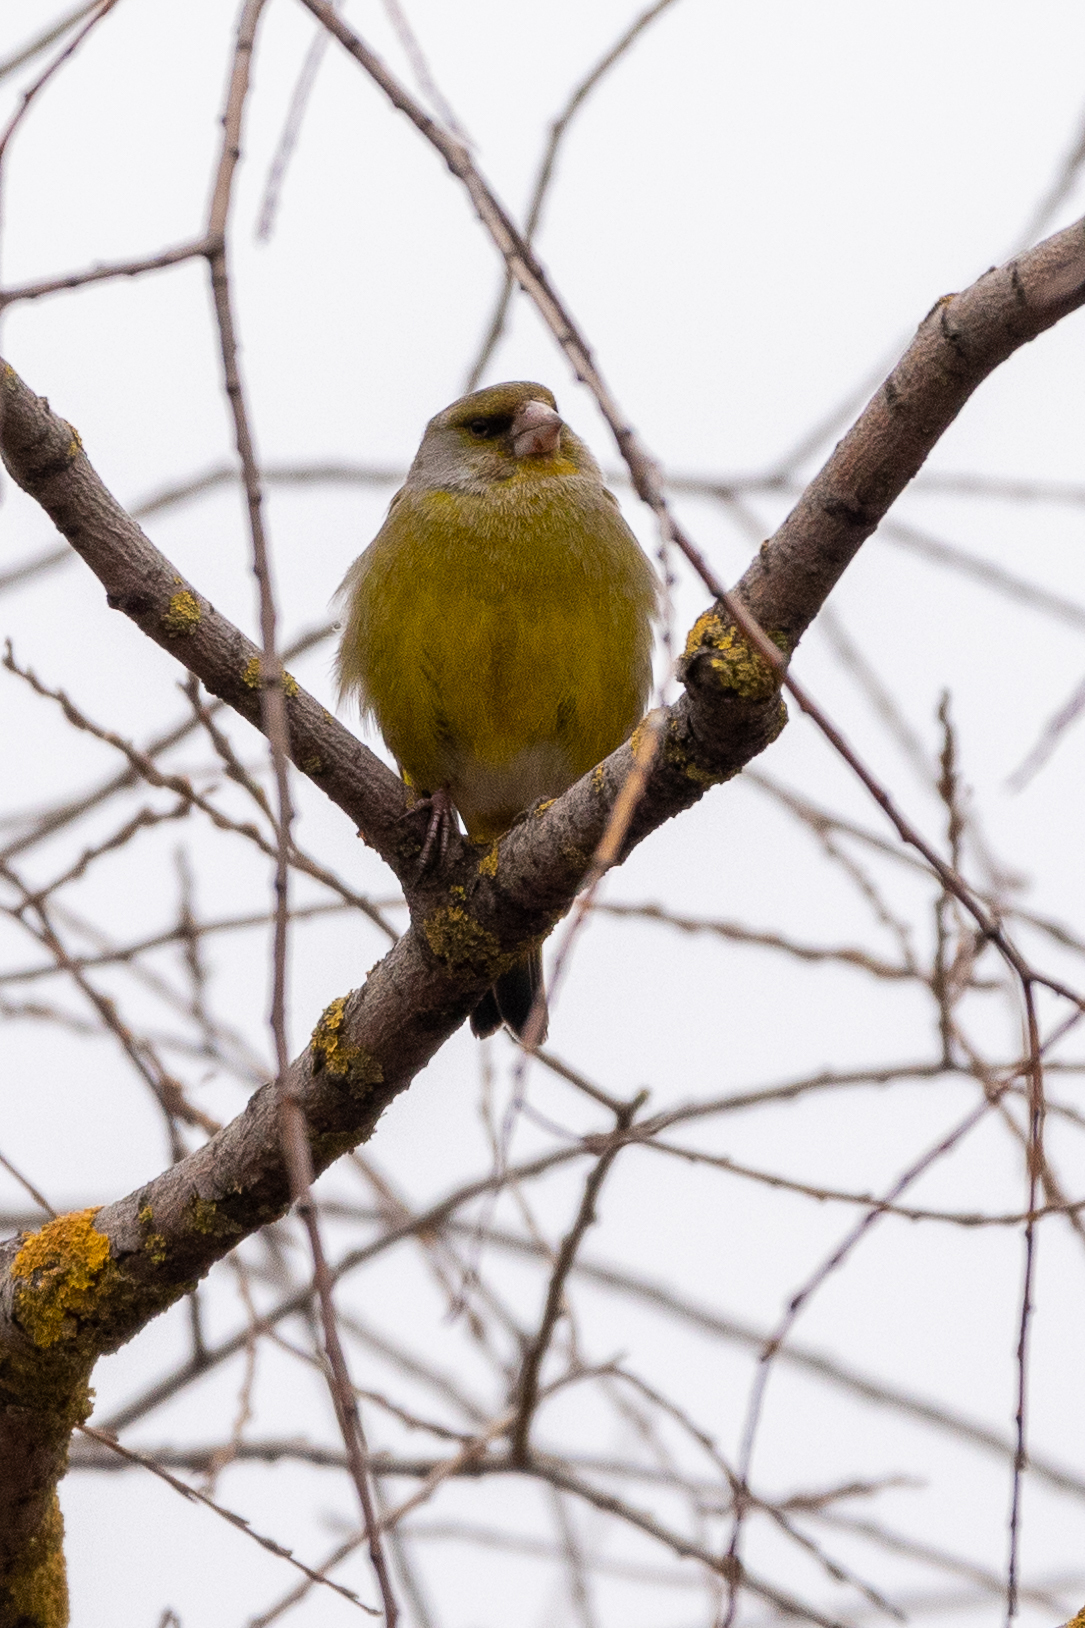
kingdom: Plantae
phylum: Tracheophyta
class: Liliopsida
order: Poales
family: Poaceae
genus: Chloris
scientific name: Chloris chloris
